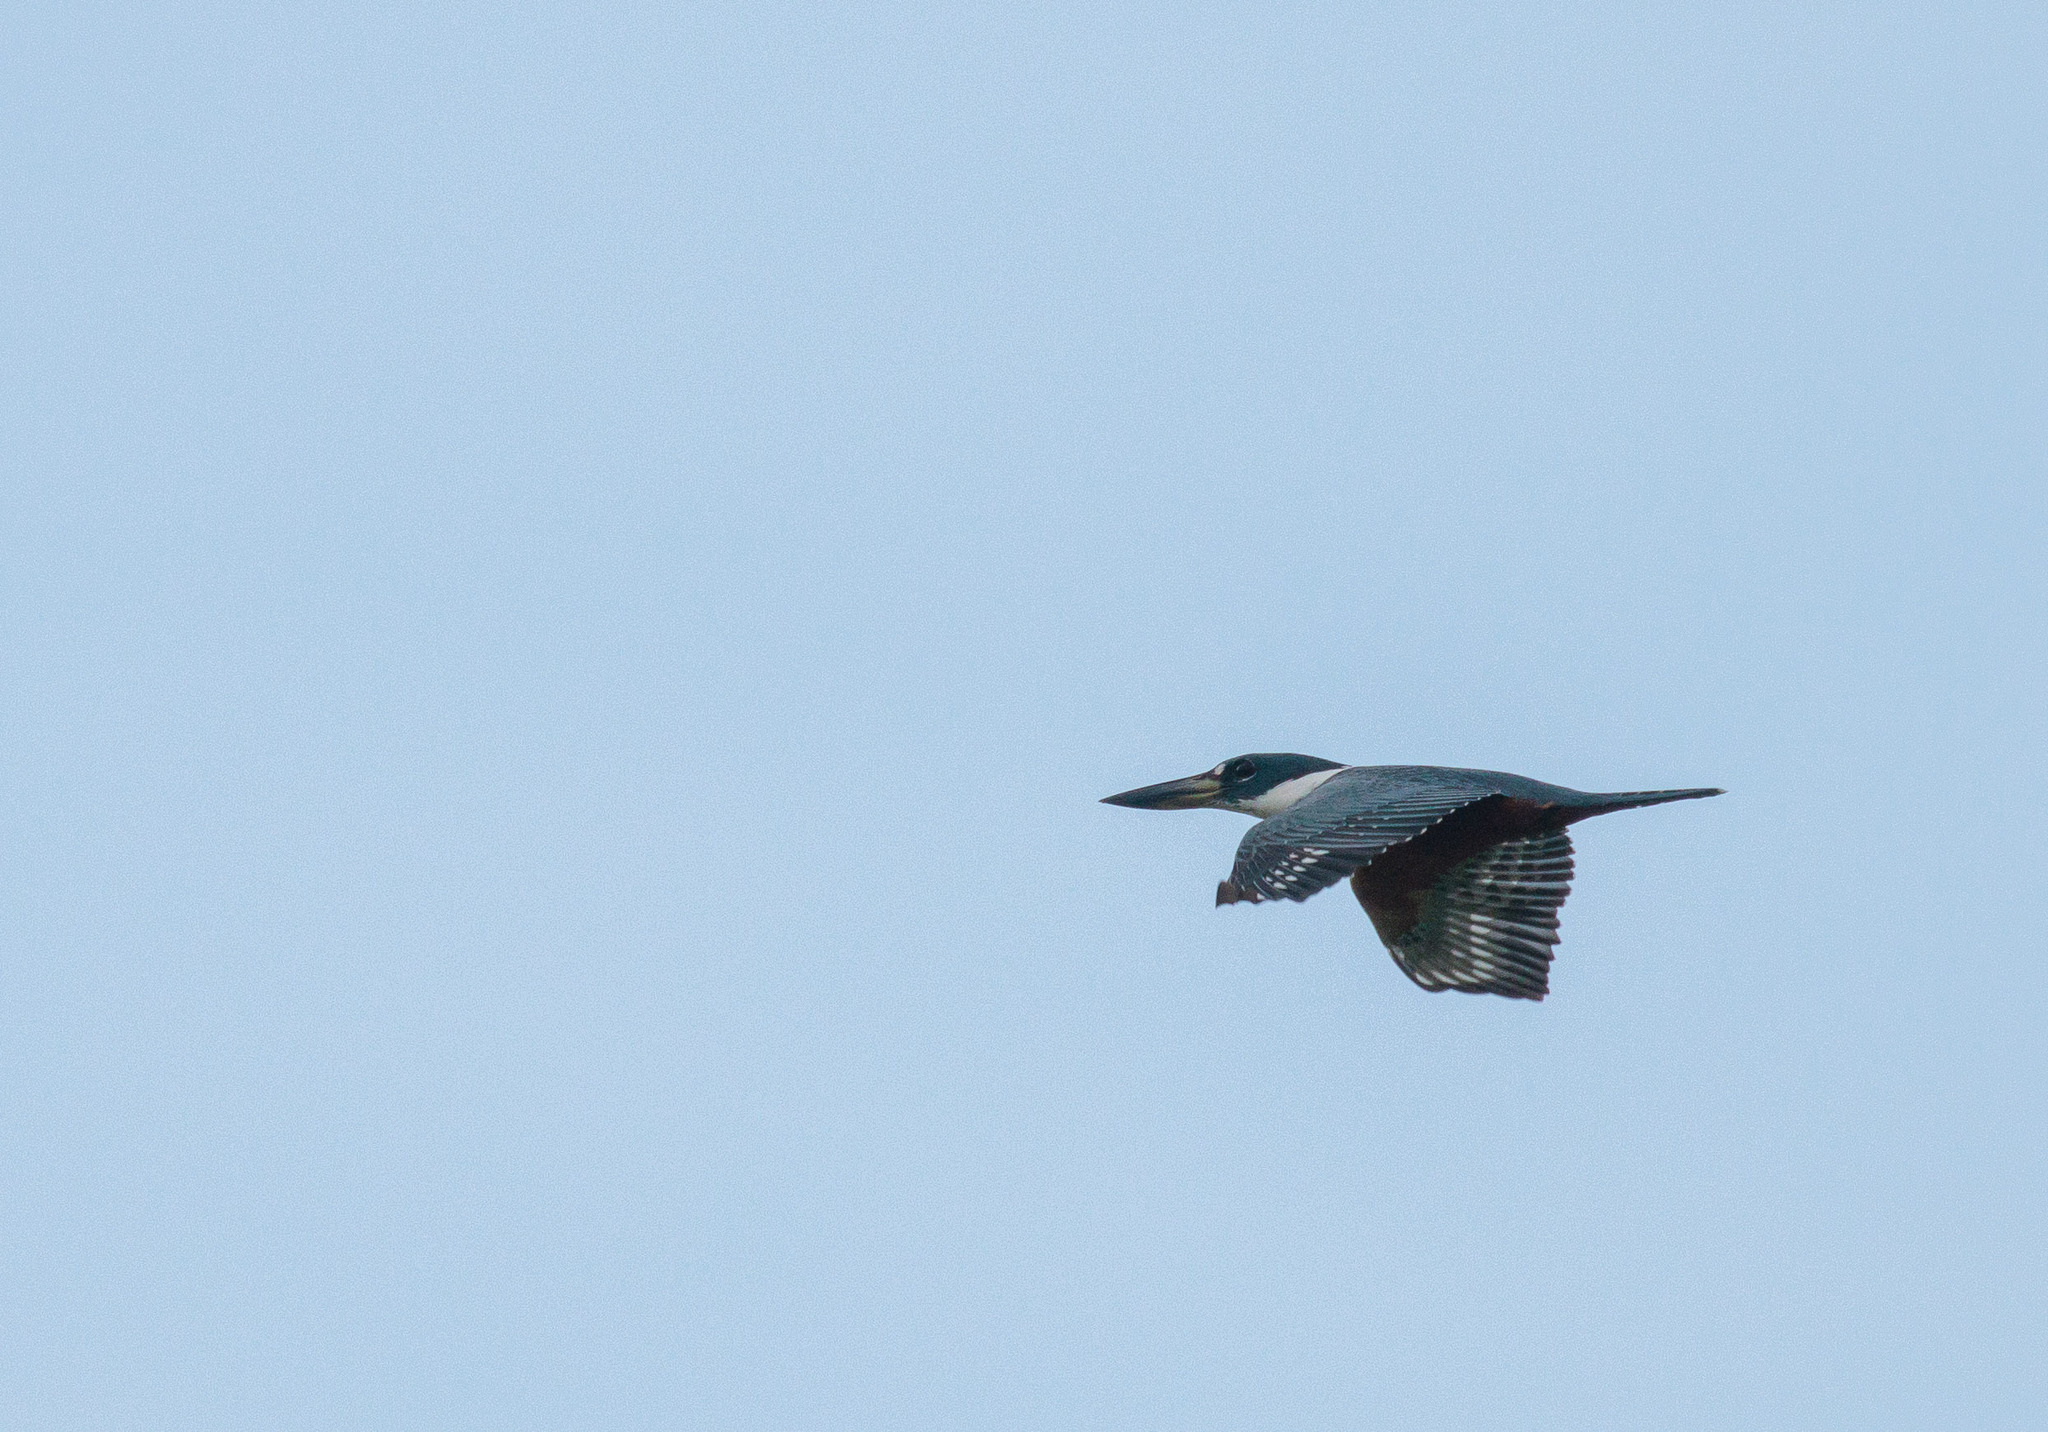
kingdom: Animalia
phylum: Chordata
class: Aves
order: Coraciiformes
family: Alcedinidae
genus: Megaceryle
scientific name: Megaceryle torquata
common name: Ringed kingfisher
